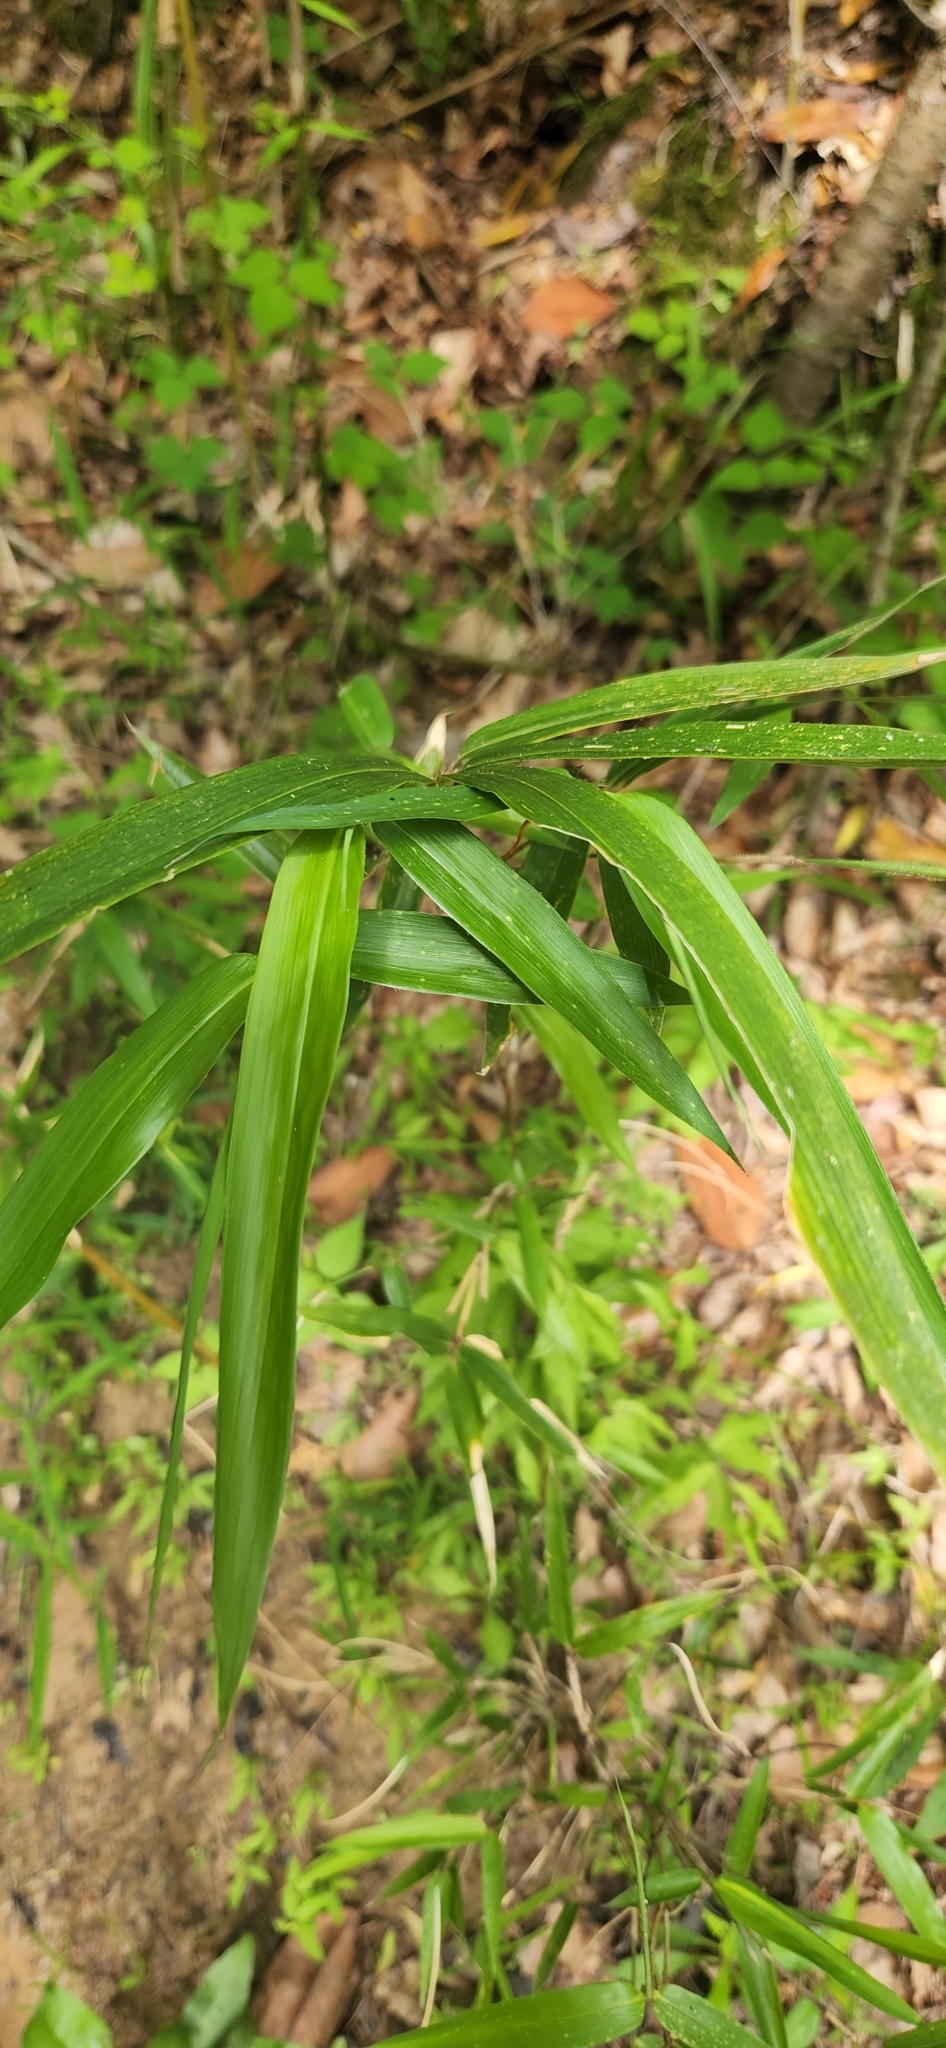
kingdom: Plantae
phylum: Tracheophyta
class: Liliopsida
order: Poales
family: Poaceae
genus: Arundinaria
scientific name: Arundinaria gigantea
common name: Giant cane
